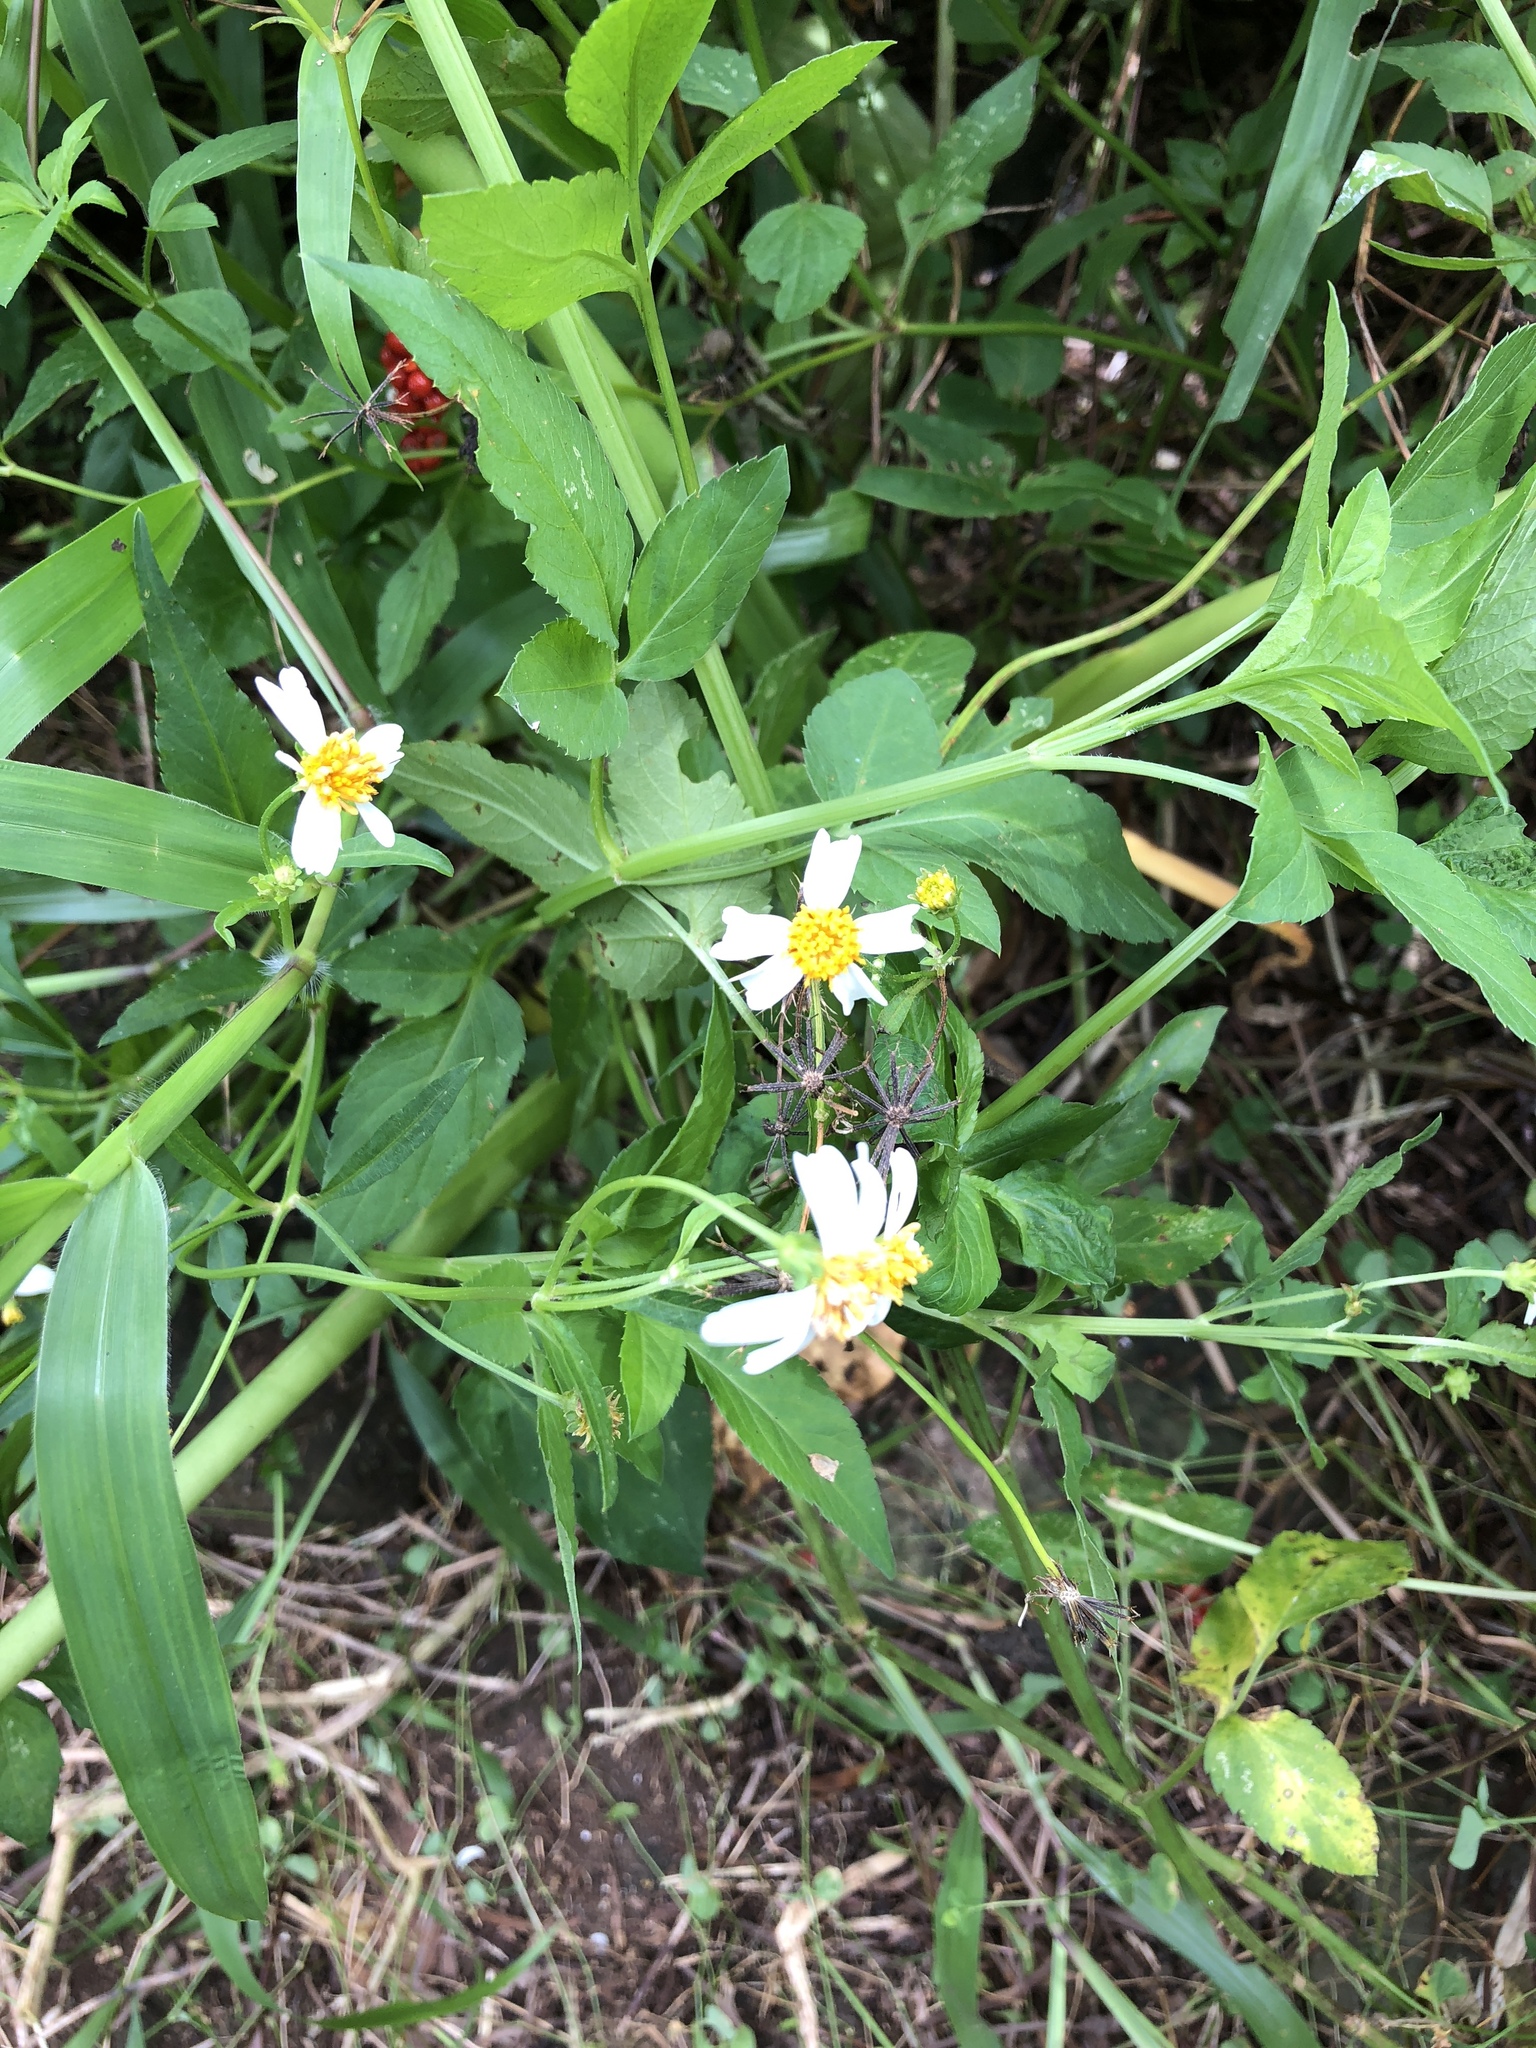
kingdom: Plantae
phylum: Tracheophyta
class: Magnoliopsida
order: Asterales
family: Asteraceae
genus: Bidens
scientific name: Bidens alba
